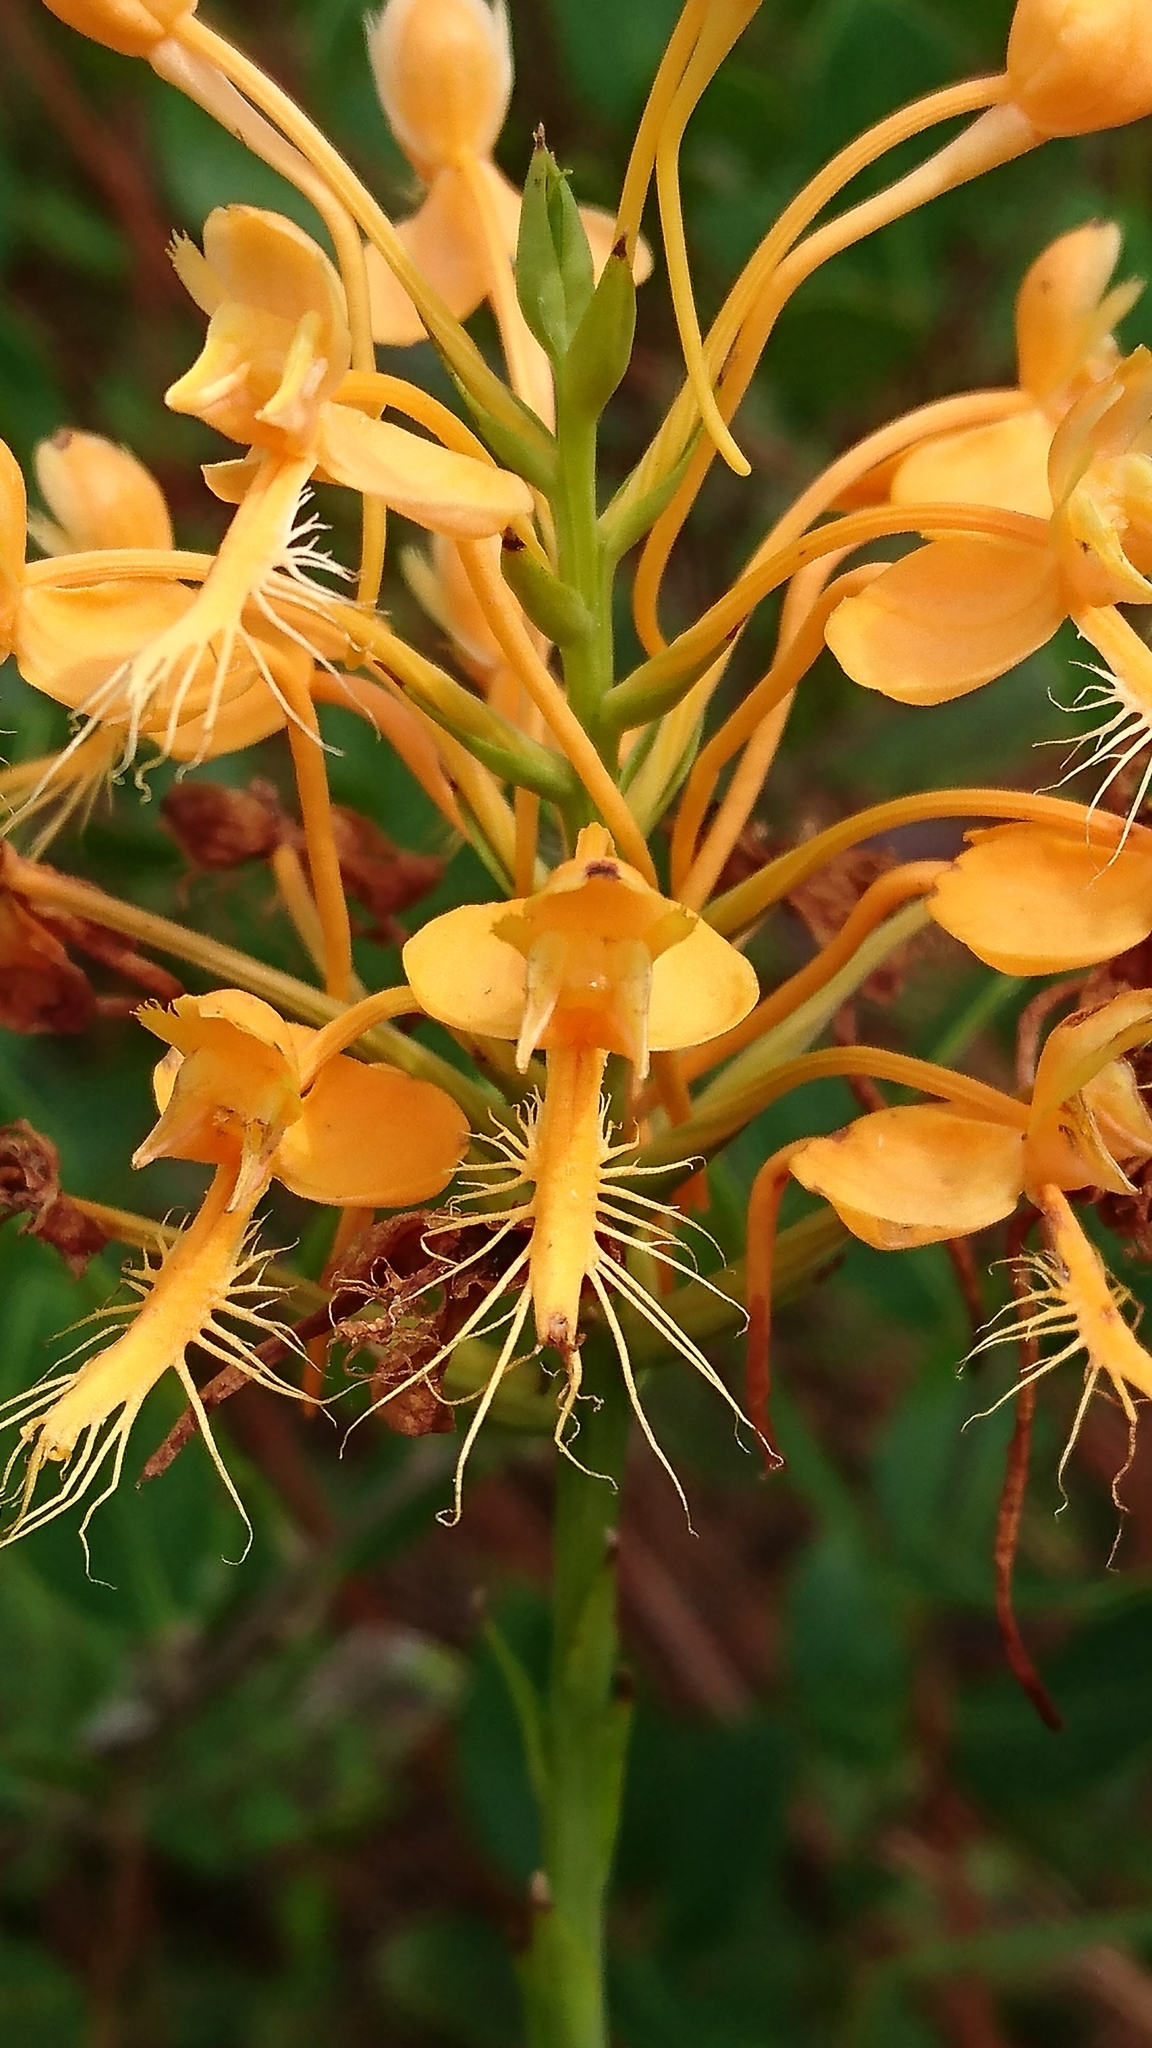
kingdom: Plantae
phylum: Tracheophyta
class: Liliopsida
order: Asparagales
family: Orchidaceae
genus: Platanthera
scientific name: Platanthera ciliaris
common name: Yellow fringed orchid
